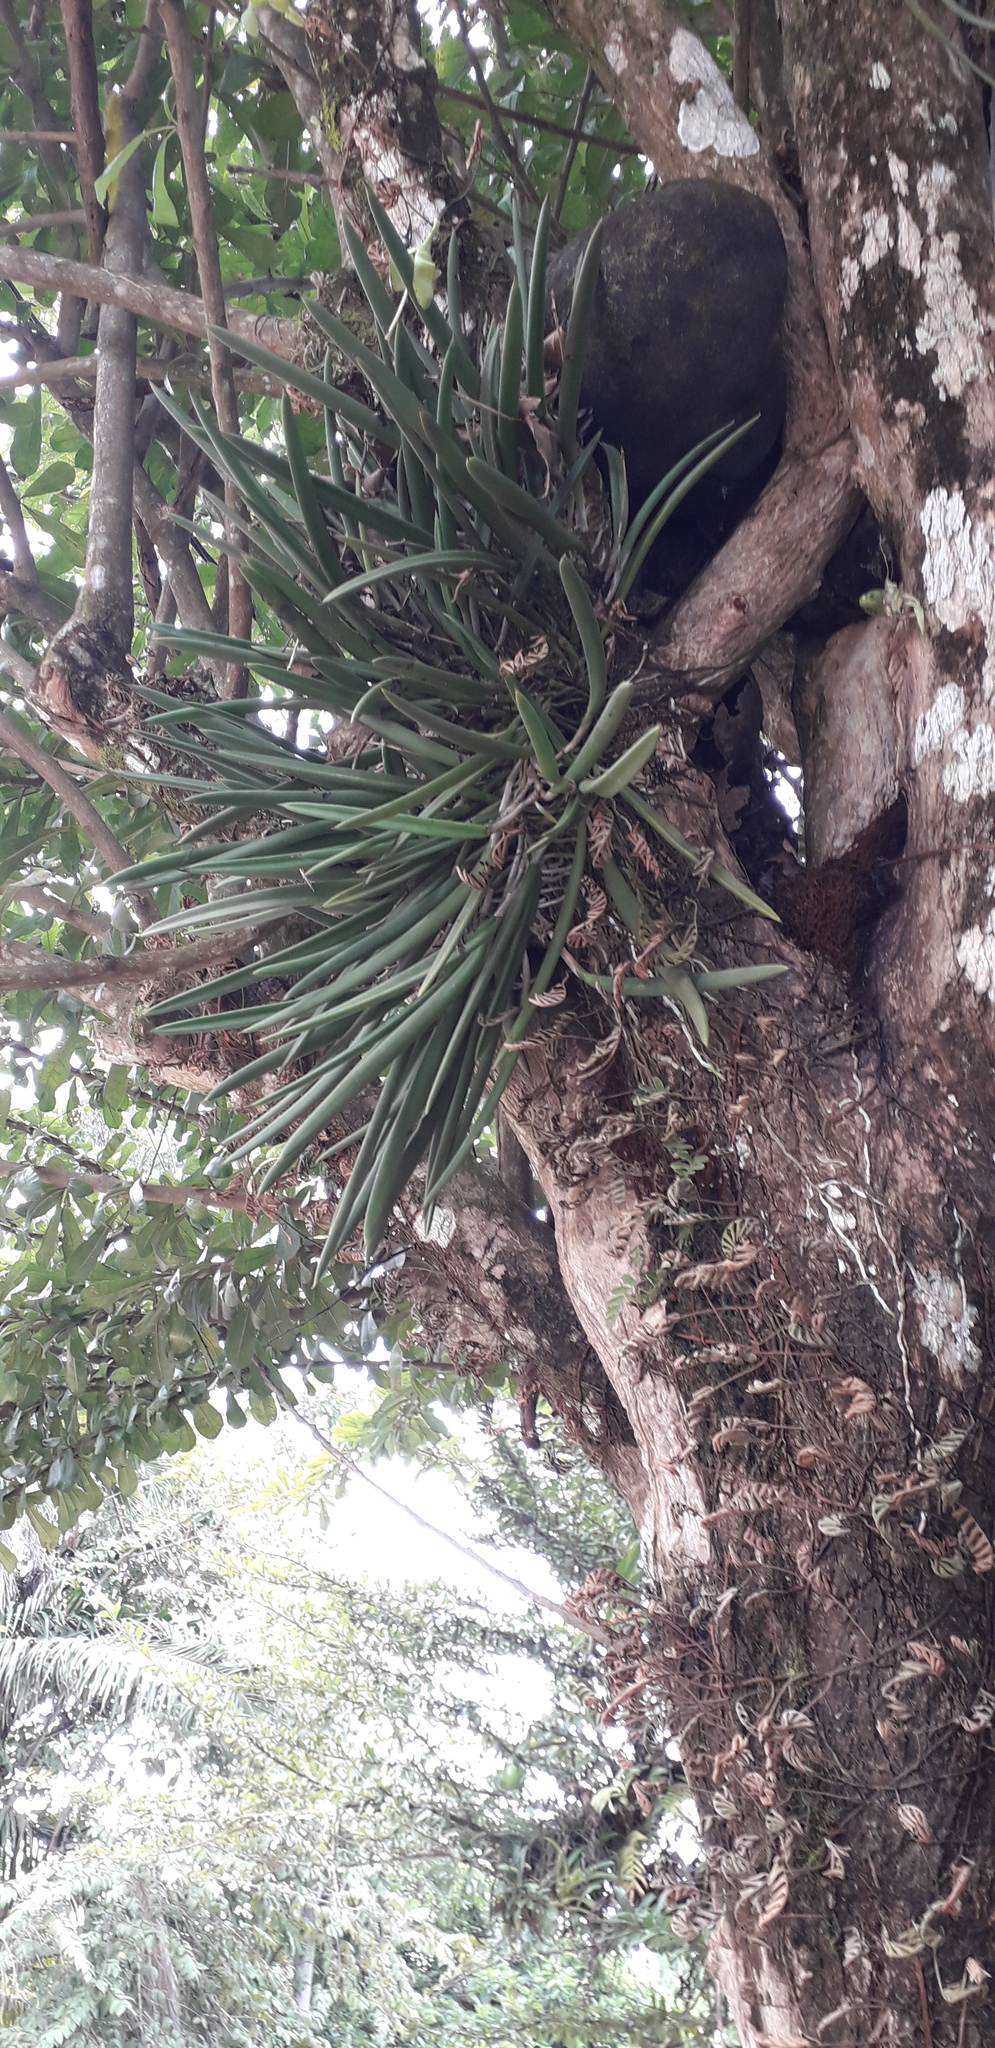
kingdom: Plantae
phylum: Tracheophyta
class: Liliopsida
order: Asparagales
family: Orchidaceae
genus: Brassavola
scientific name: Brassavola nodosa
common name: Lady of the night
